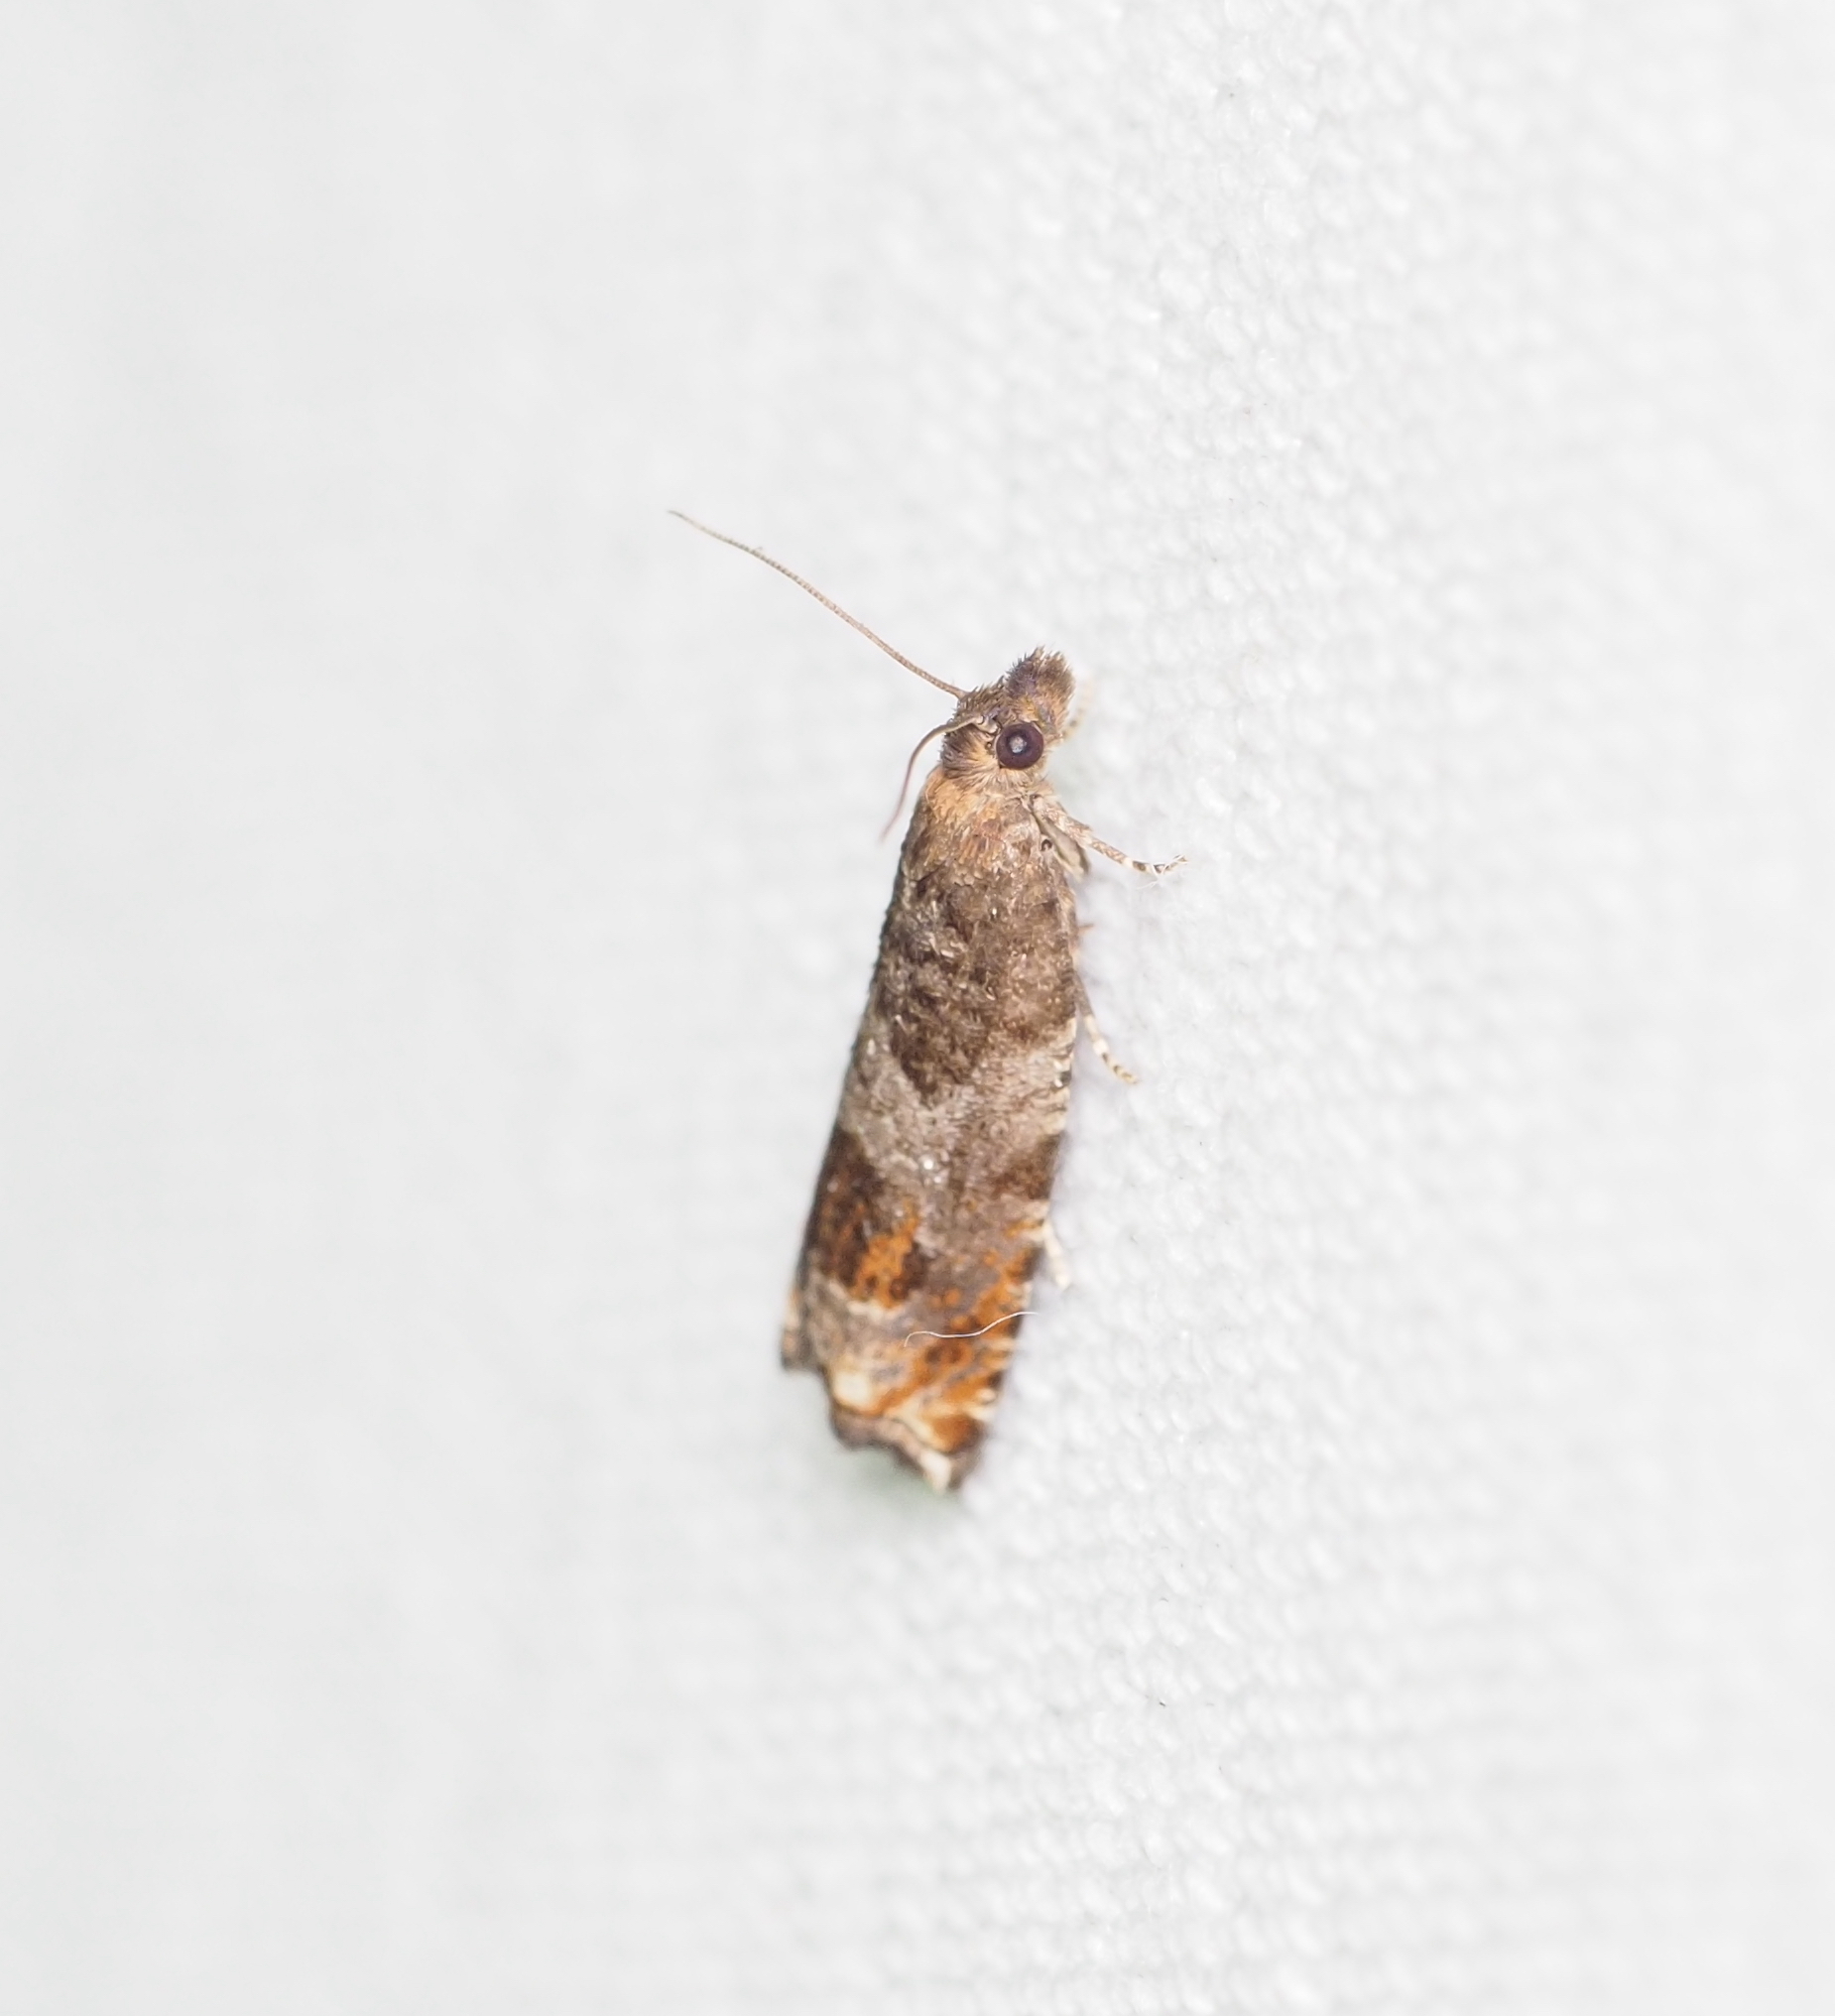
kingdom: Animalia
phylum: Arthropoda
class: Insecta
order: Lepidoptera
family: Tortricidae
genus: Ancylis
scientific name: Ancylis achatana
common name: Triangle-marked roller
